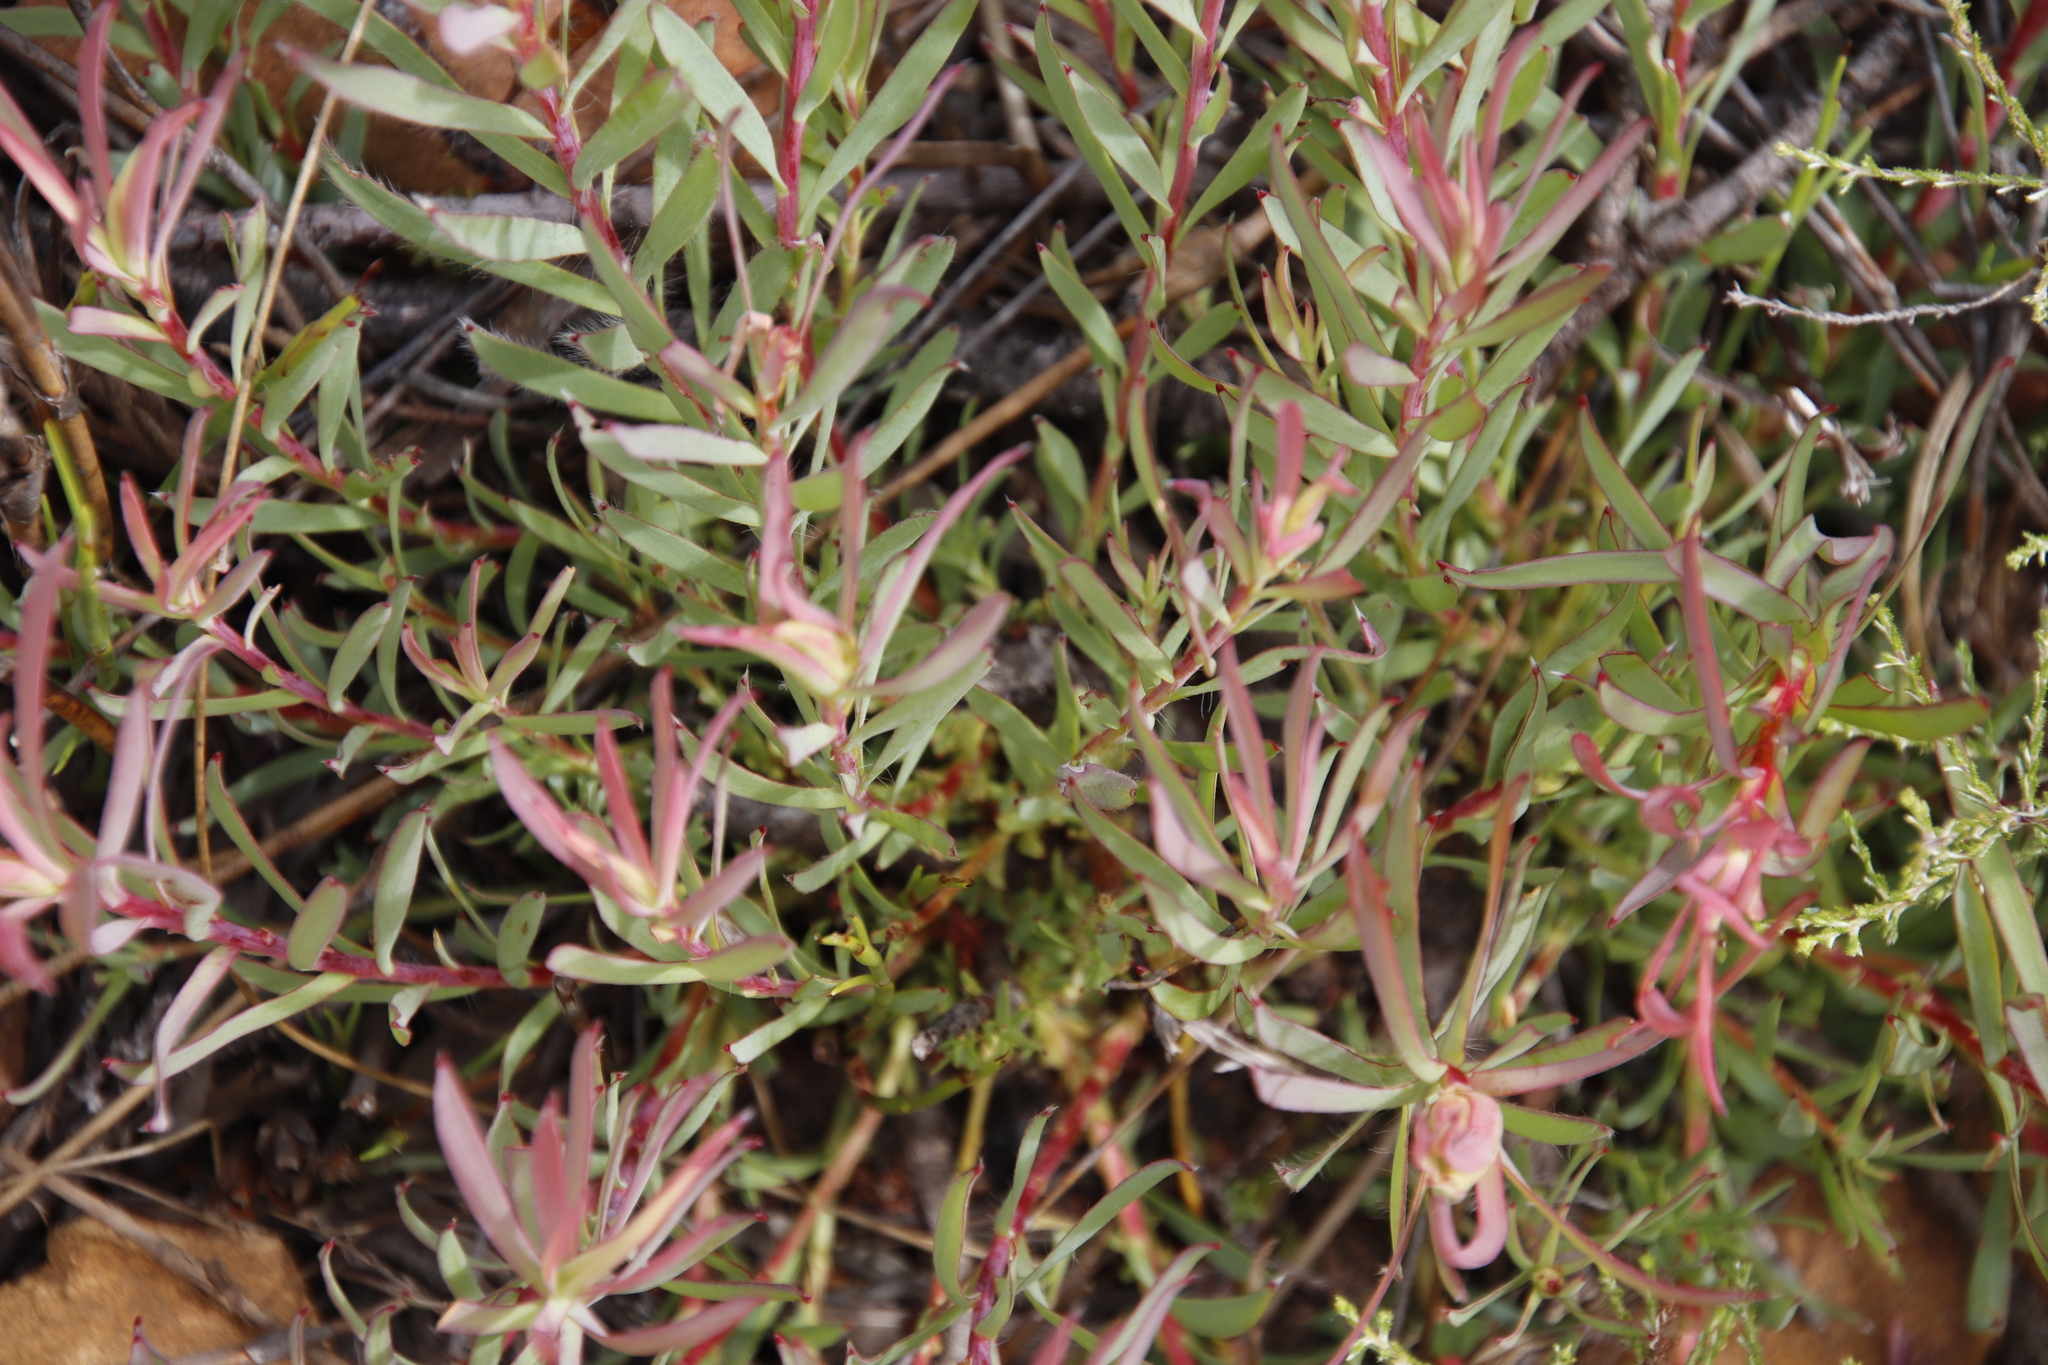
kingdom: Plantae
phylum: Tracheophyta
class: Magnoliopsida
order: Proteales
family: Proteaceae
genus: Leucadendron
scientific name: Leucadendron salignum
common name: Common sunshine conebush
